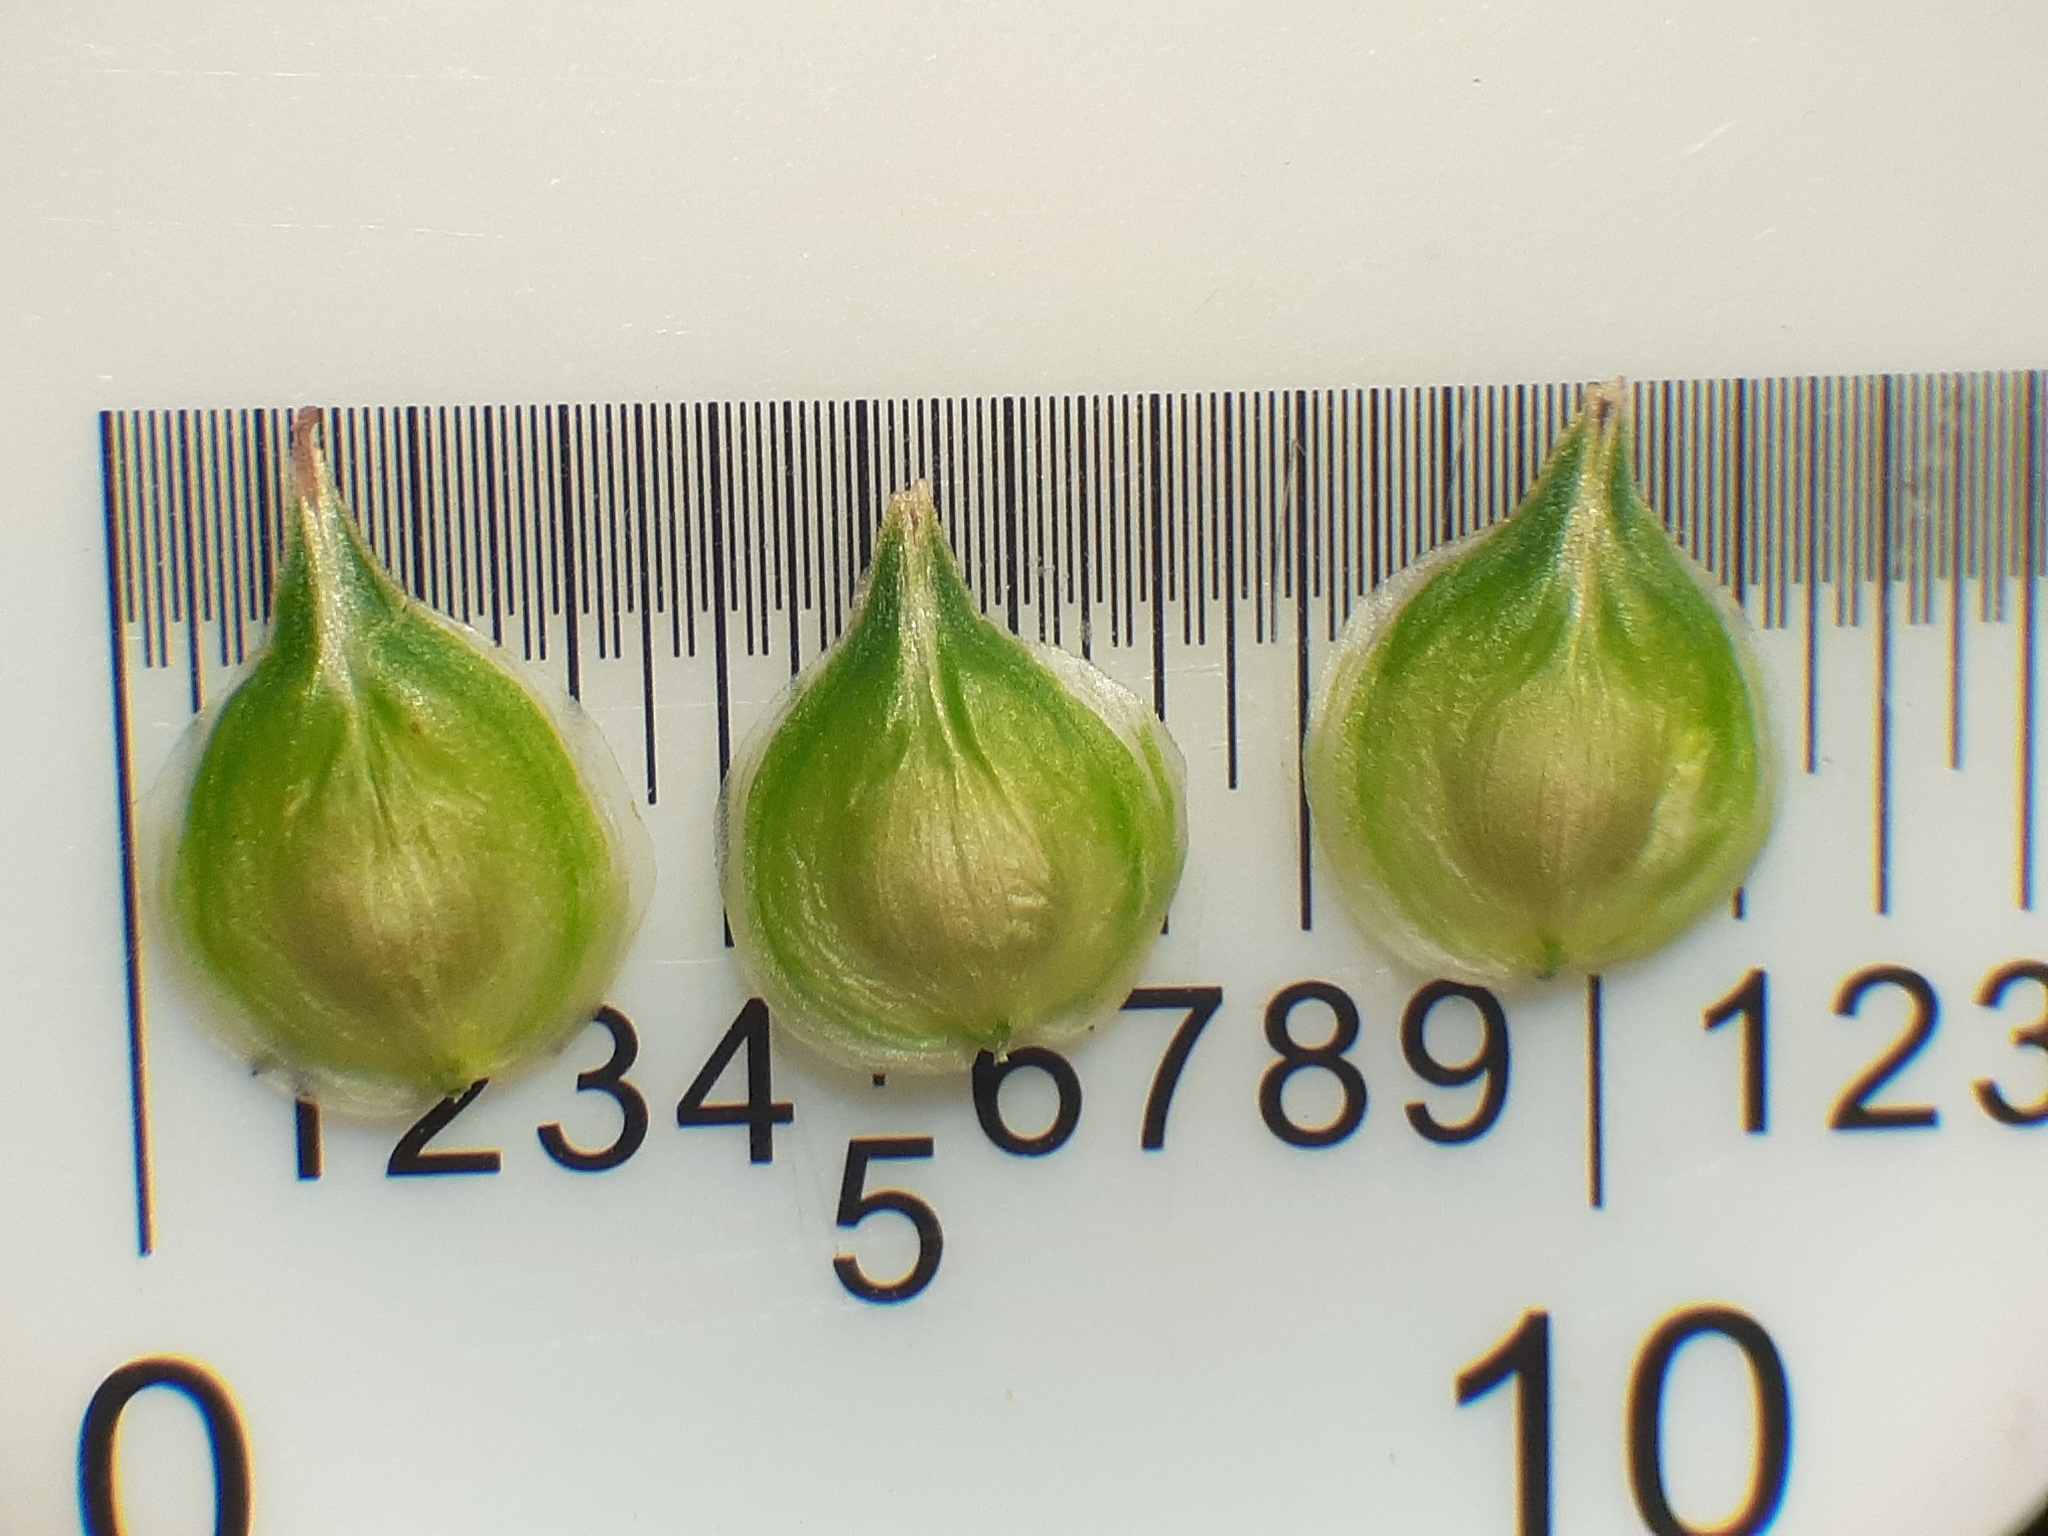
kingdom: Plantae
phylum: Tracheophyta
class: Liliopsida
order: Poales
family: Cyperaceae
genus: Carex
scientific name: Carex brevior
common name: Brevior sedge
